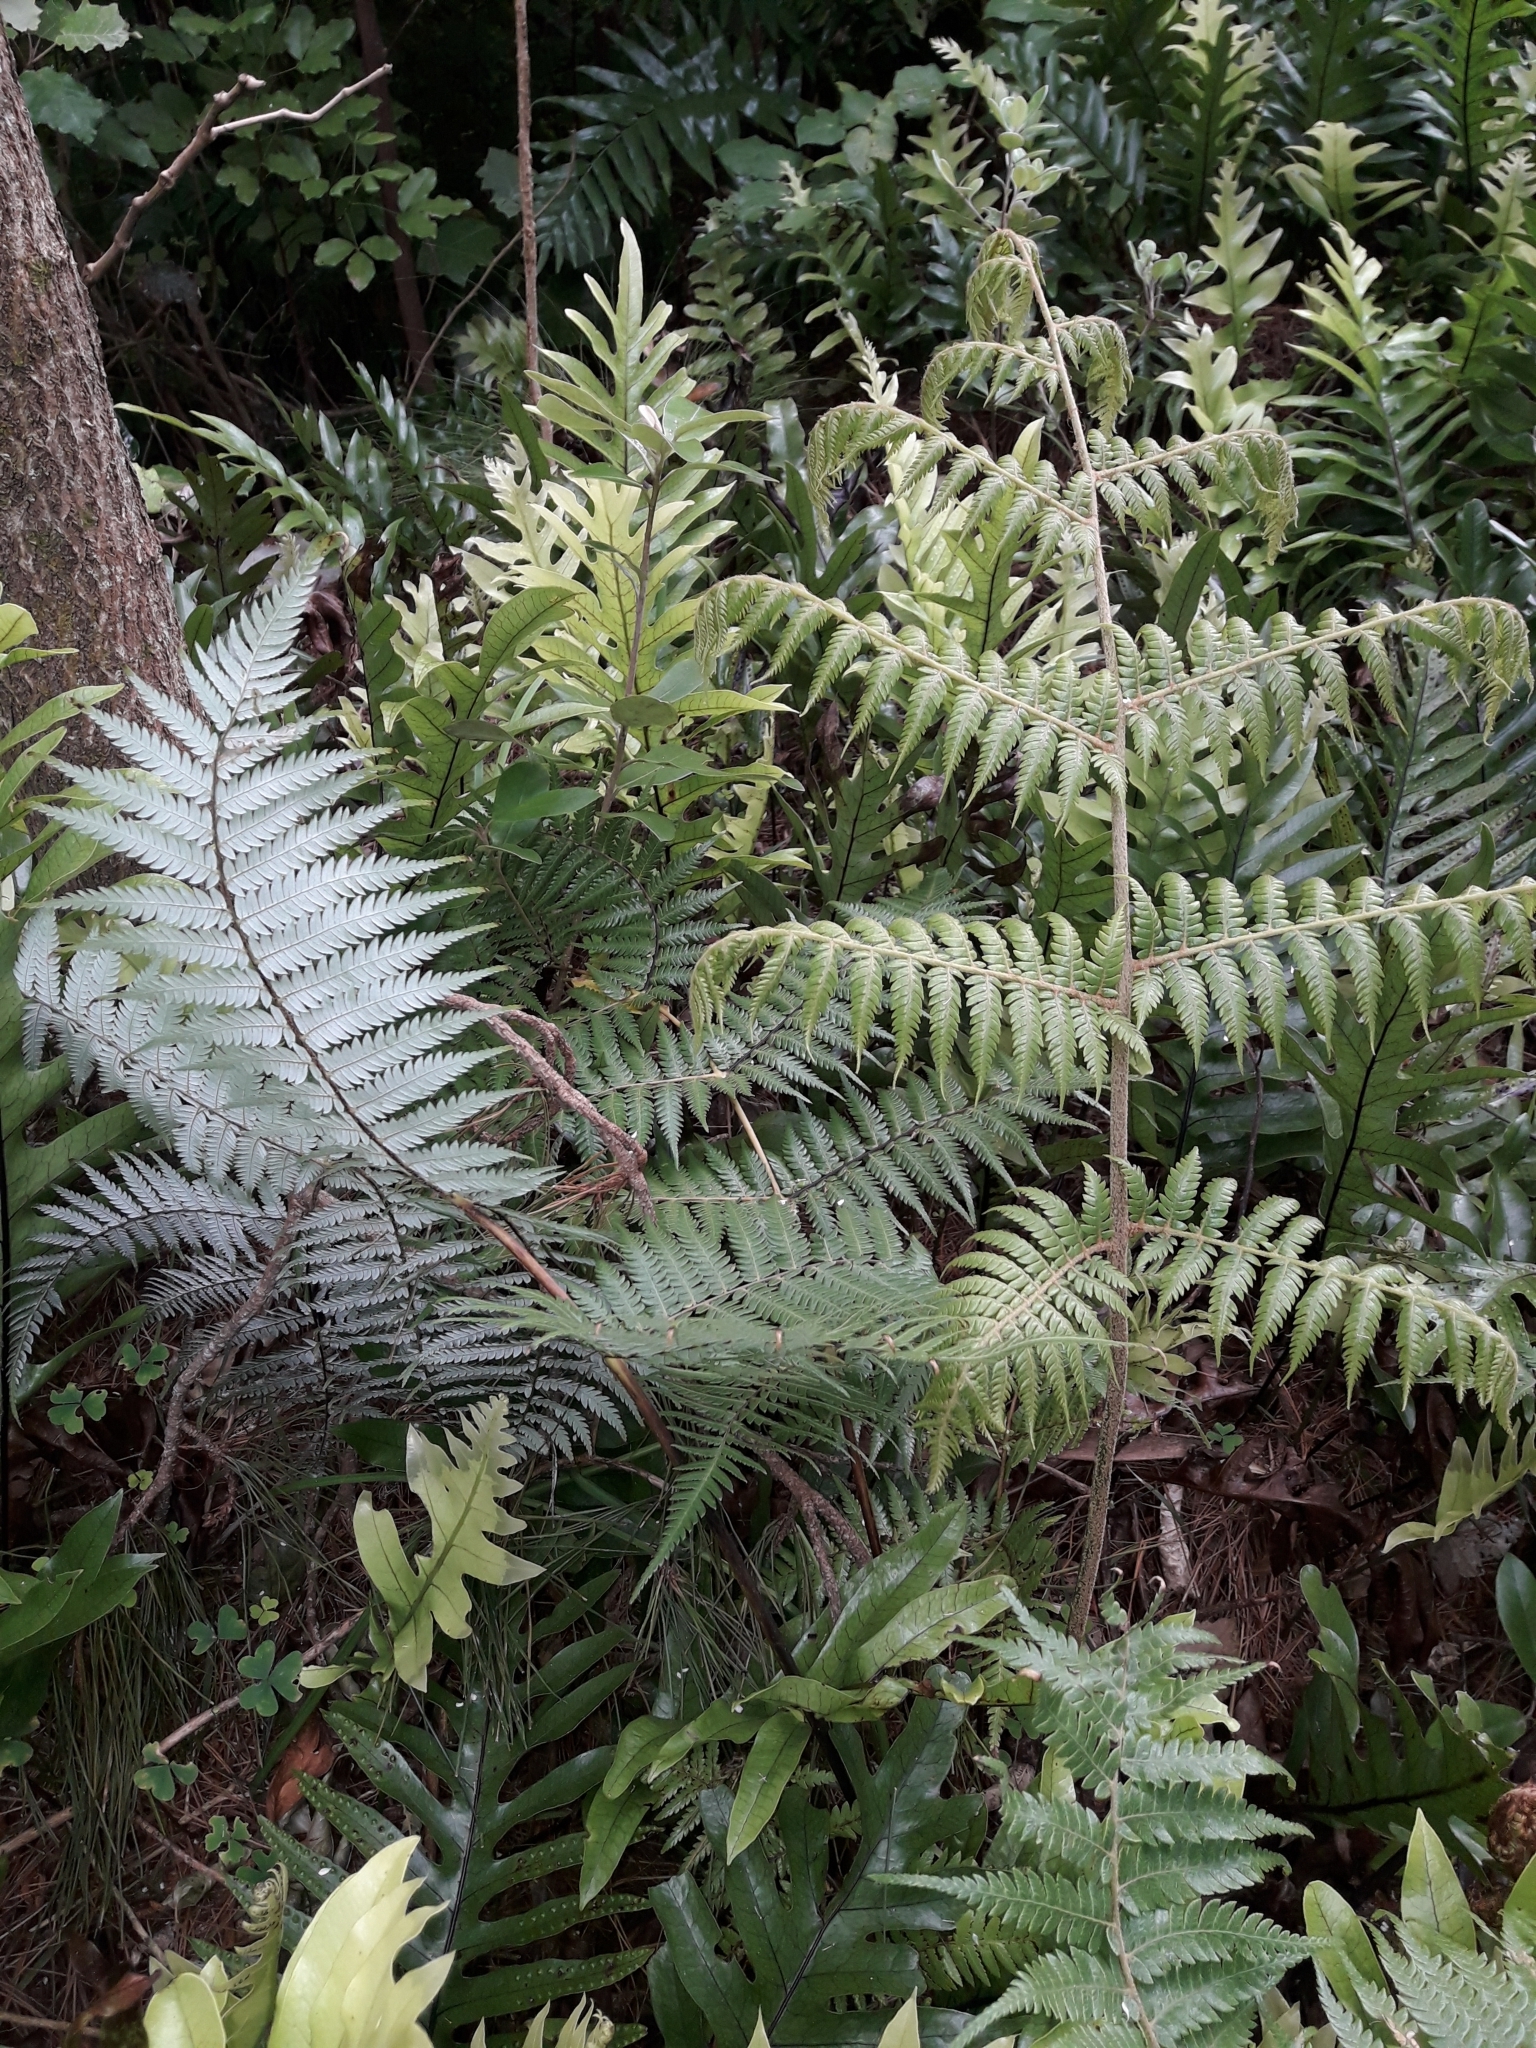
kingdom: Plantae
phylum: Tracheophyta
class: Polypodiopsida
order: Cyatheales
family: Cyatheaceae
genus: Alsophila
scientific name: Alsophila dealbata
